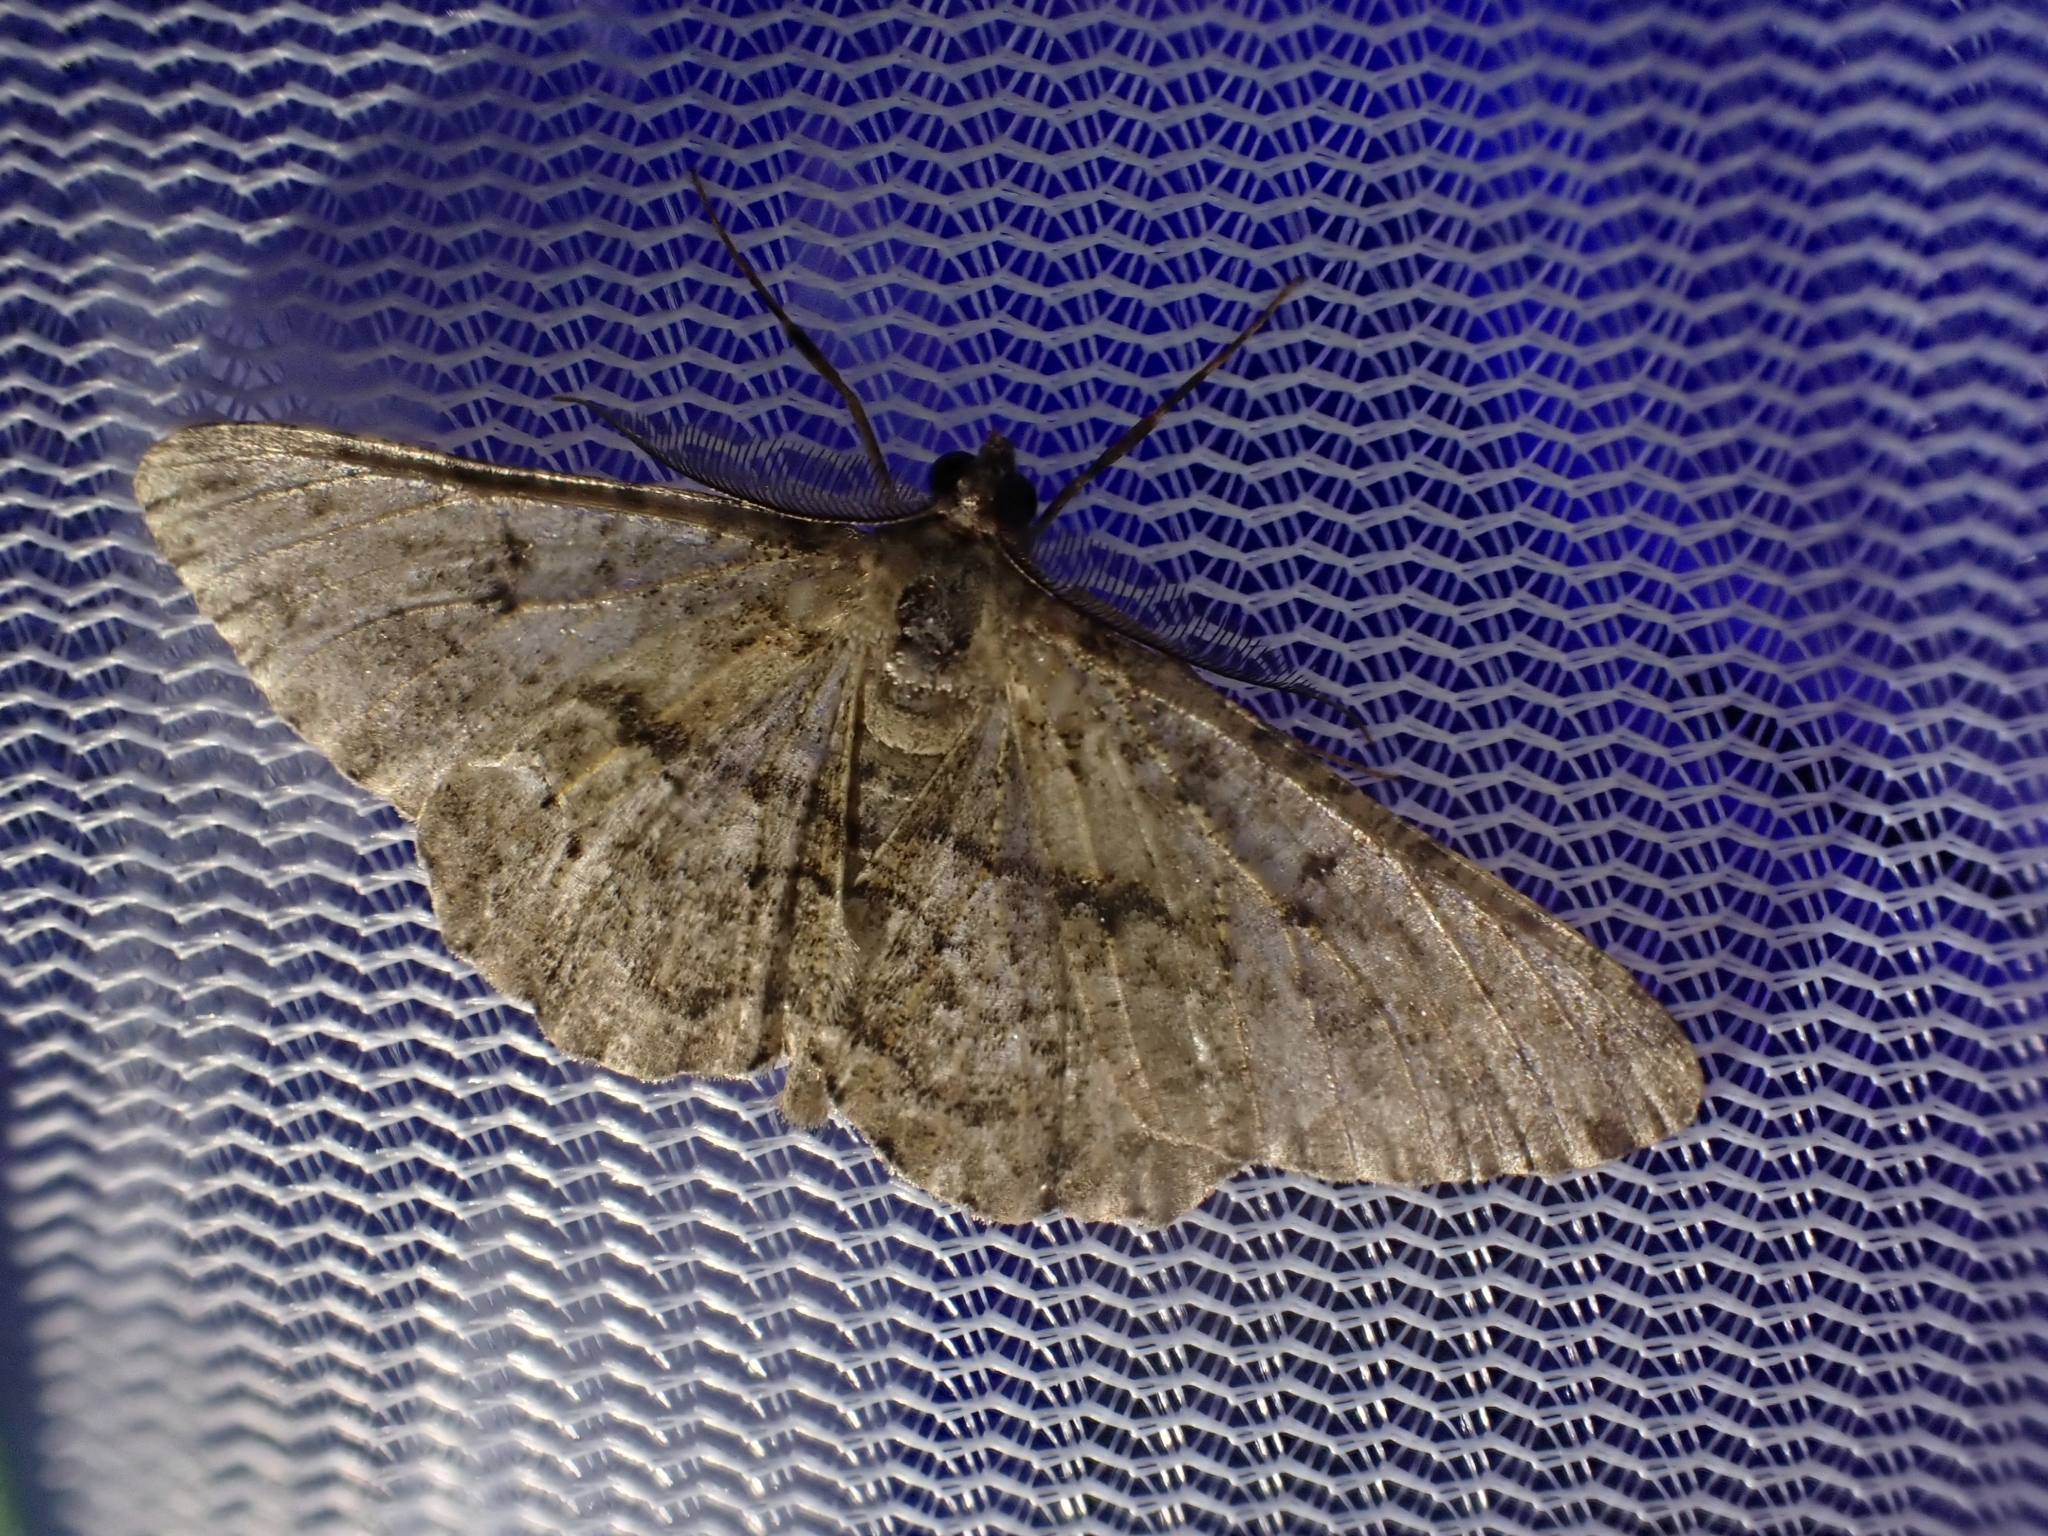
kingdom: Animalia
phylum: Arthropoda
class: Insecta
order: Lepidoptera
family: Geometridae
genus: Peribatodes
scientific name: Peribatodes rhomboidaria
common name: Willow beauty
